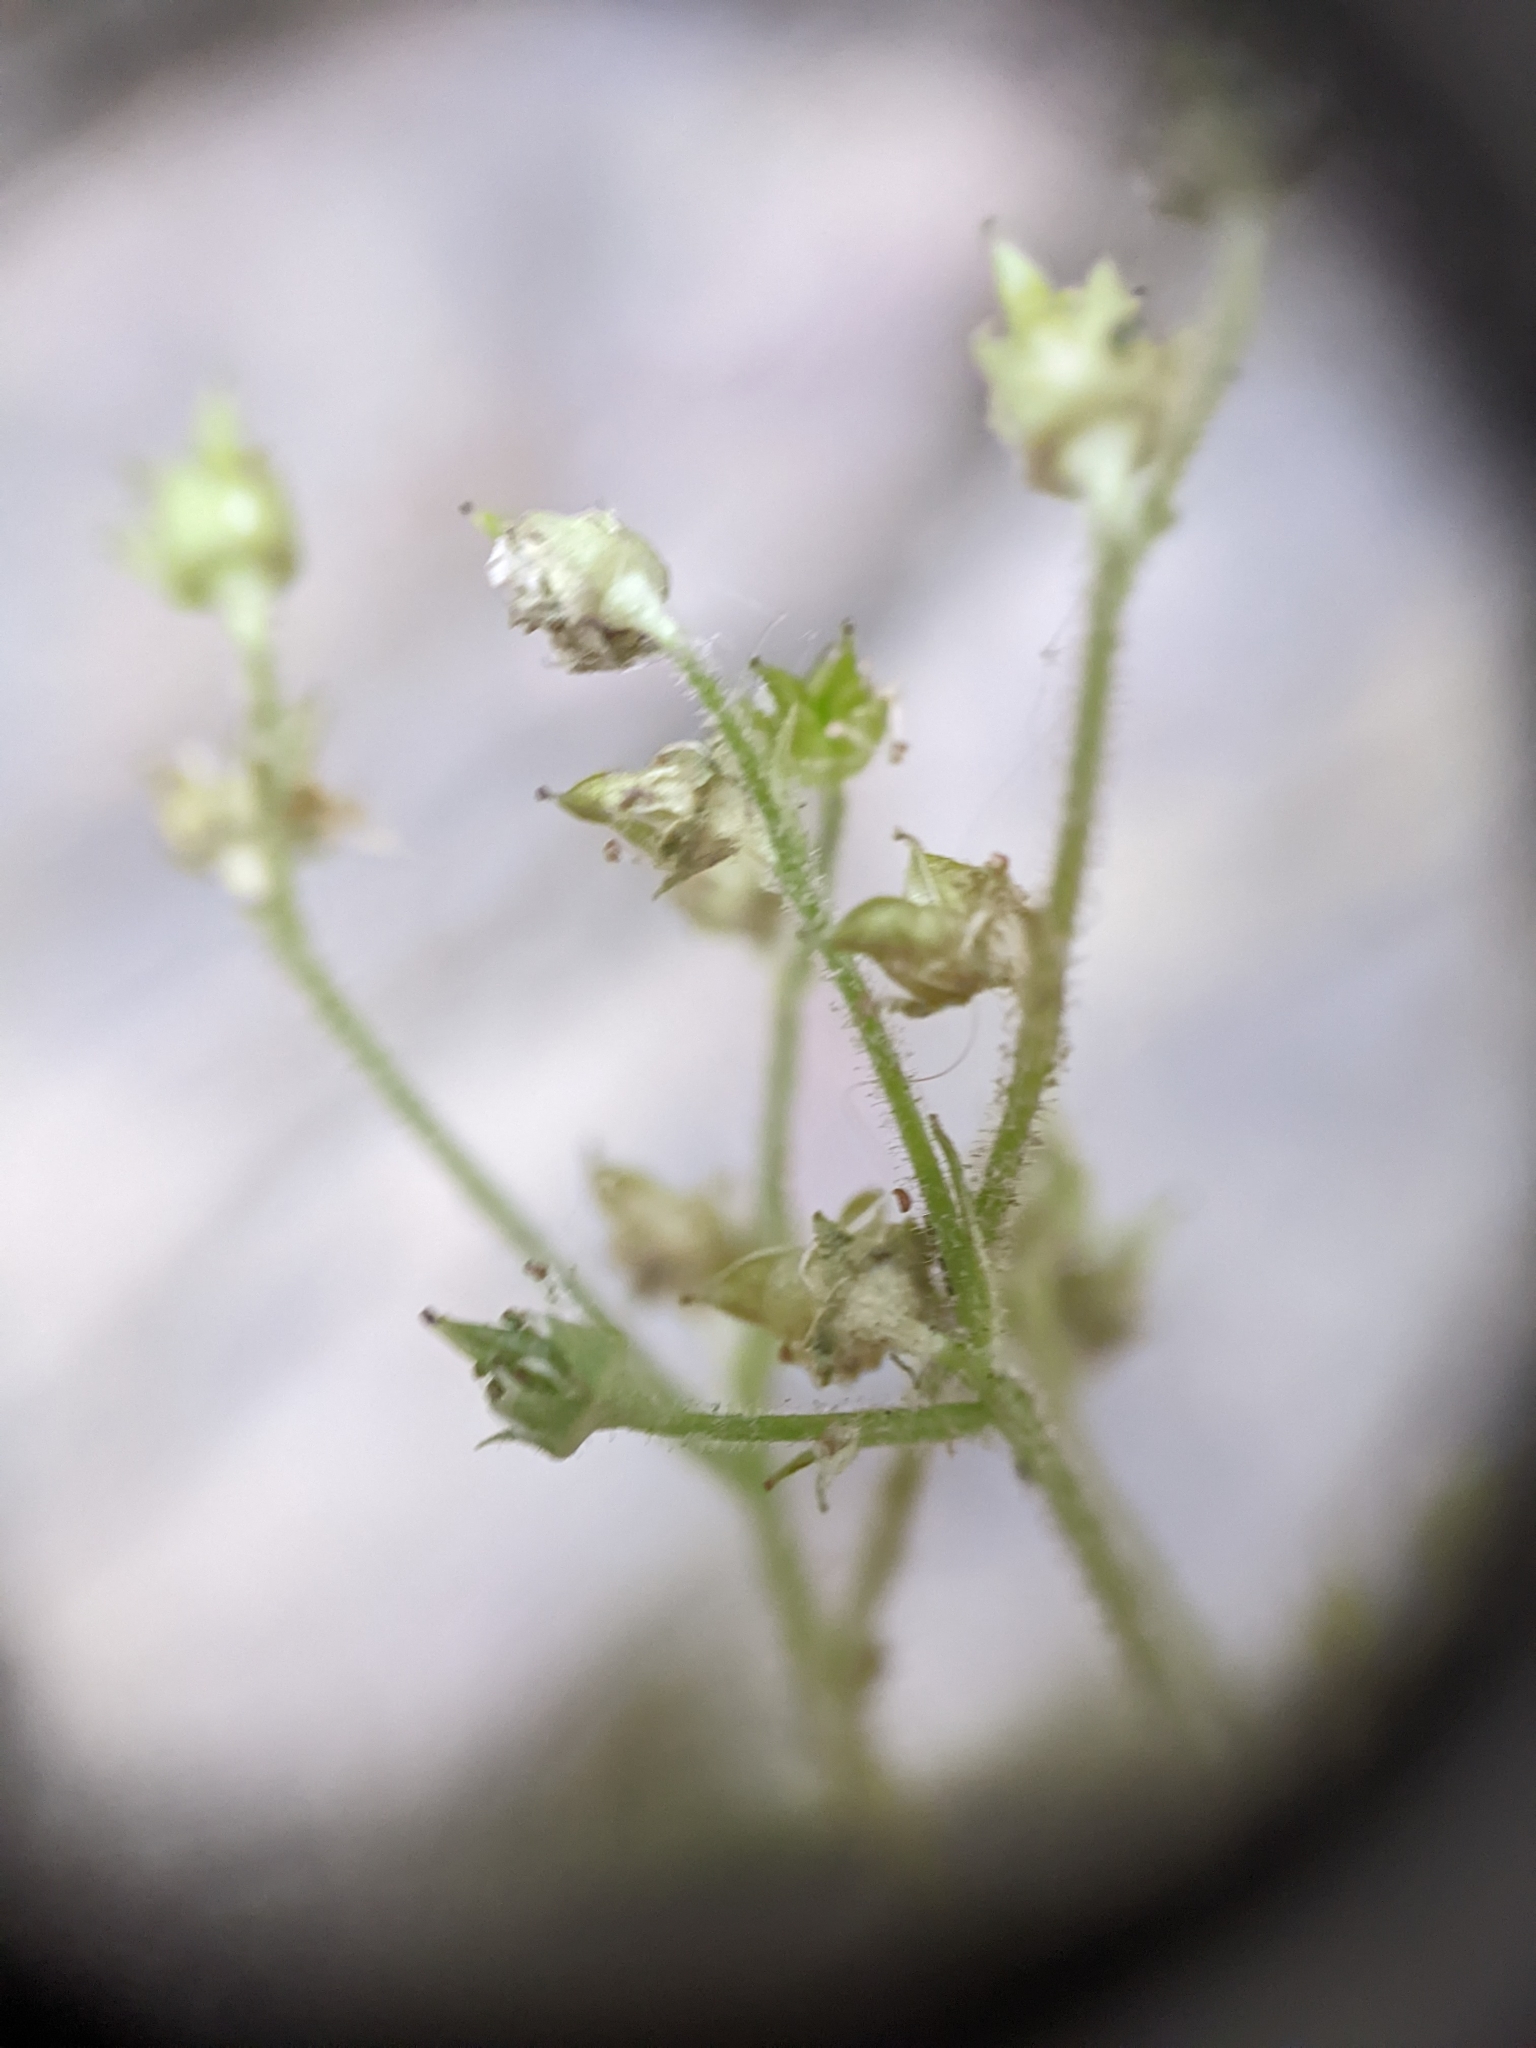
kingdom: Plantae
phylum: Tracheophyta
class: Magnoliopsida
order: Saxifragales
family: Saxifragaceae
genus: Micranthes
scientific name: Micranthes virginiensis
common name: Early saxifrage
